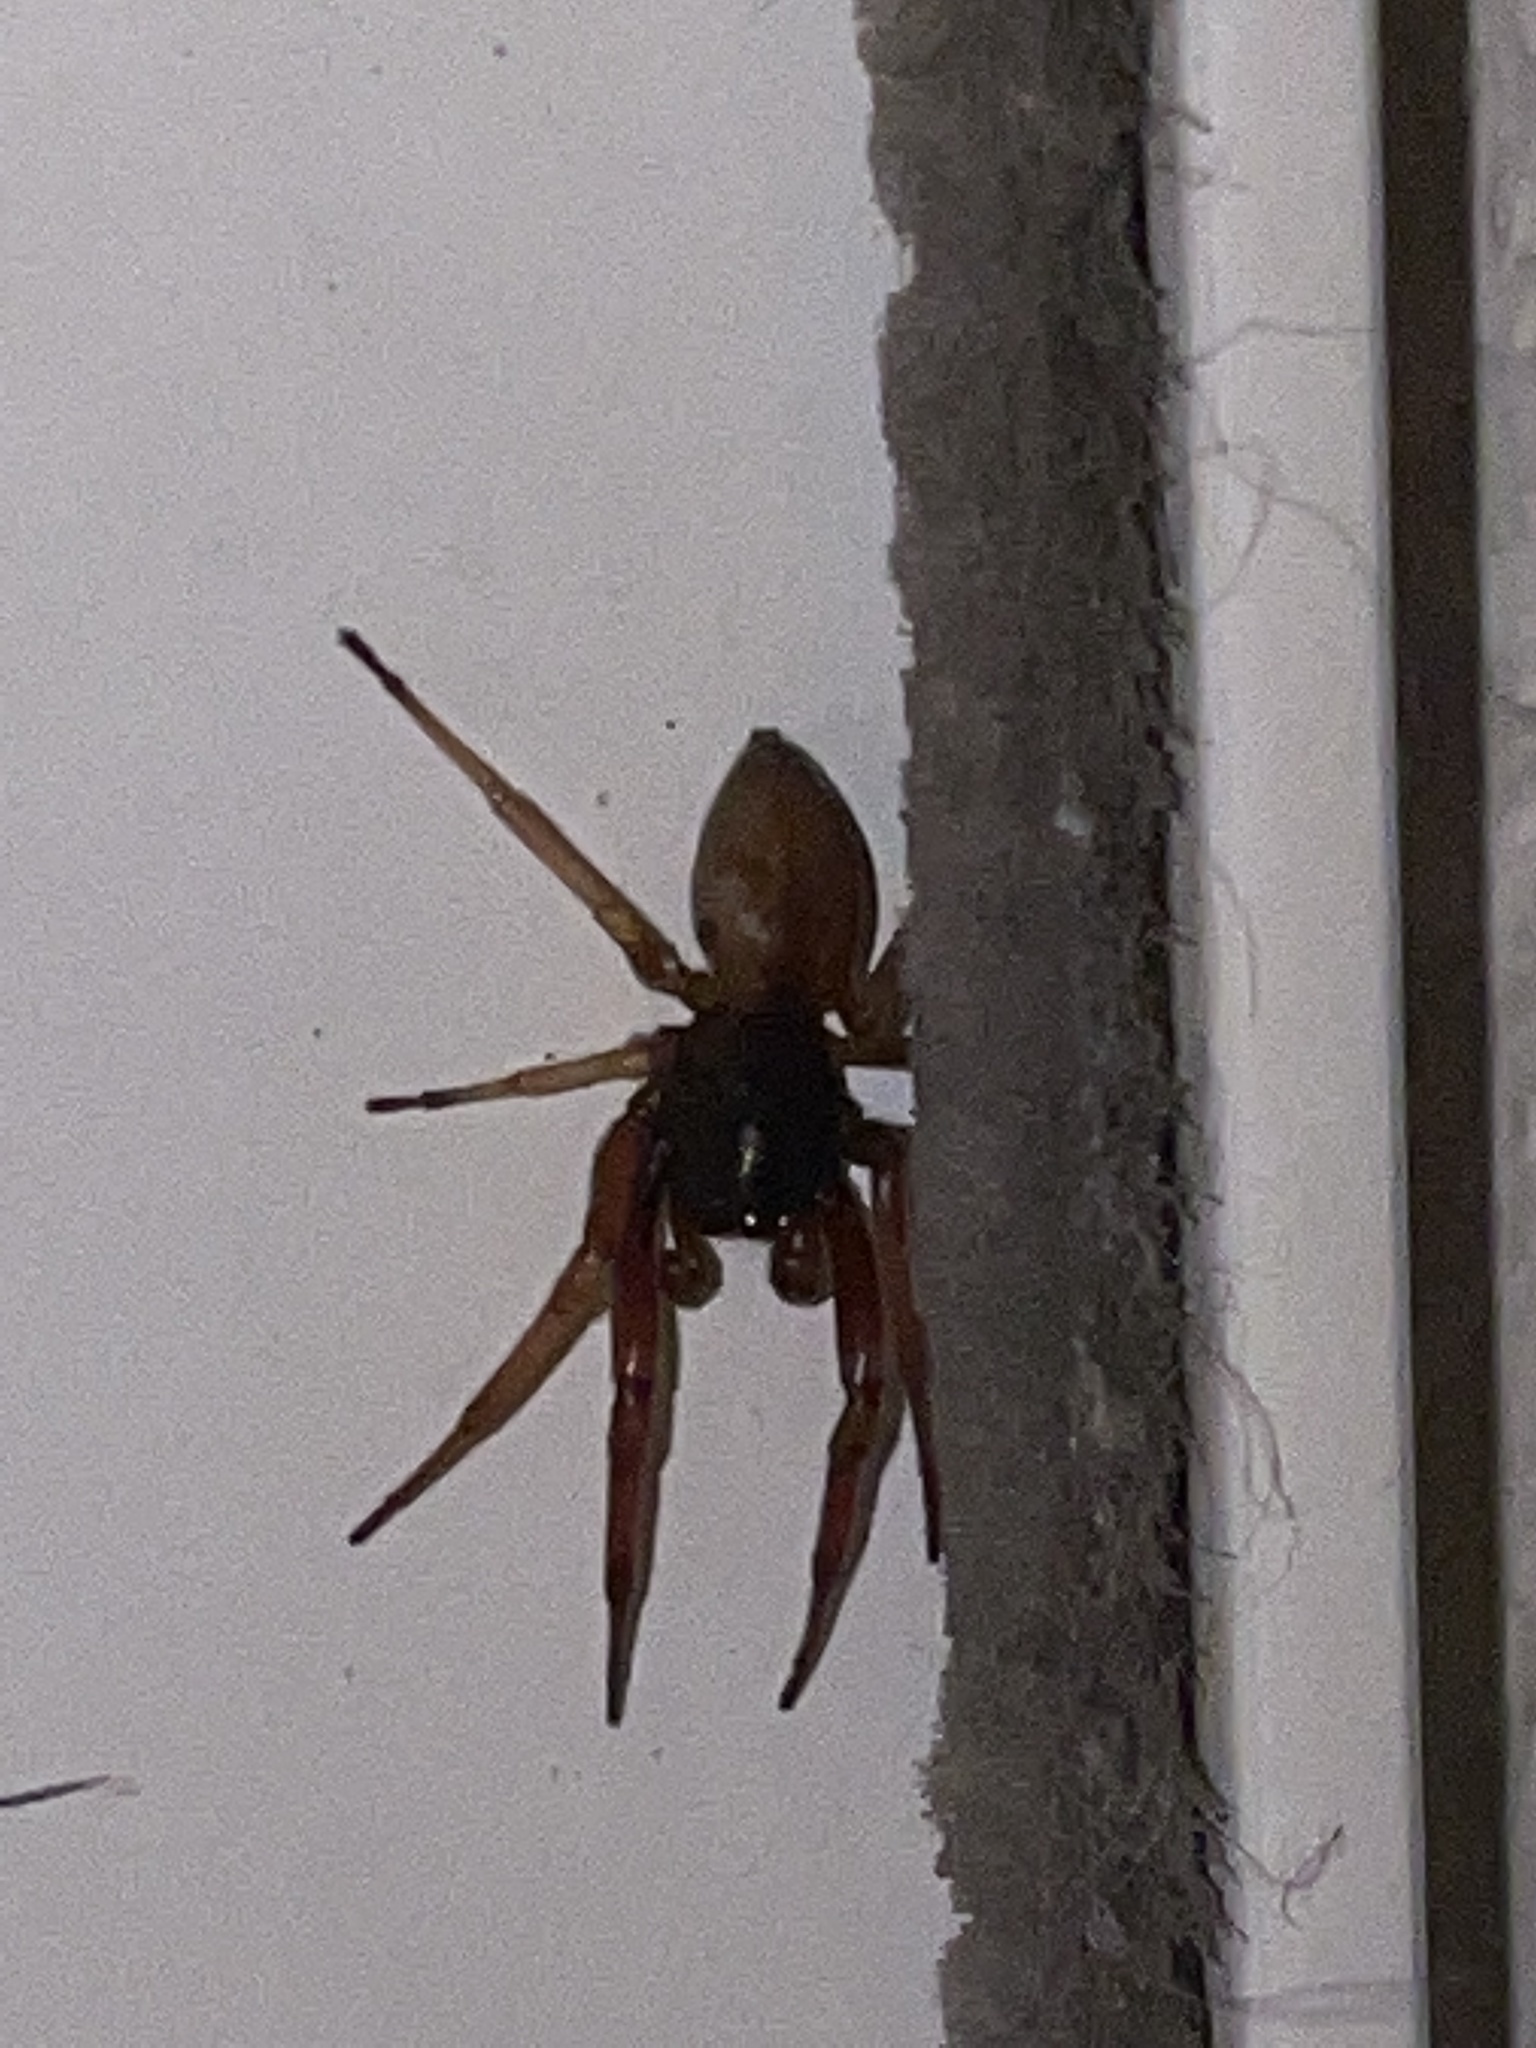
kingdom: Animalia
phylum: Arthropoda
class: Arachnida
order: Araneae
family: Trachelidae
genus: Trachelas
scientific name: Trachelas tranquillus
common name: Broad-faced sac spider
